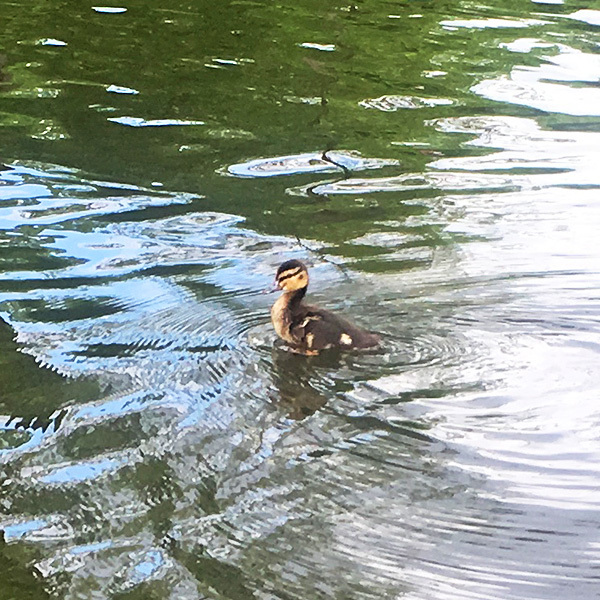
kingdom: Animalia
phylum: Chordata
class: Aves
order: Anseriformes
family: Anatidae
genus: Anas
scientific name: Anas platyrhynchos
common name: Mallard
